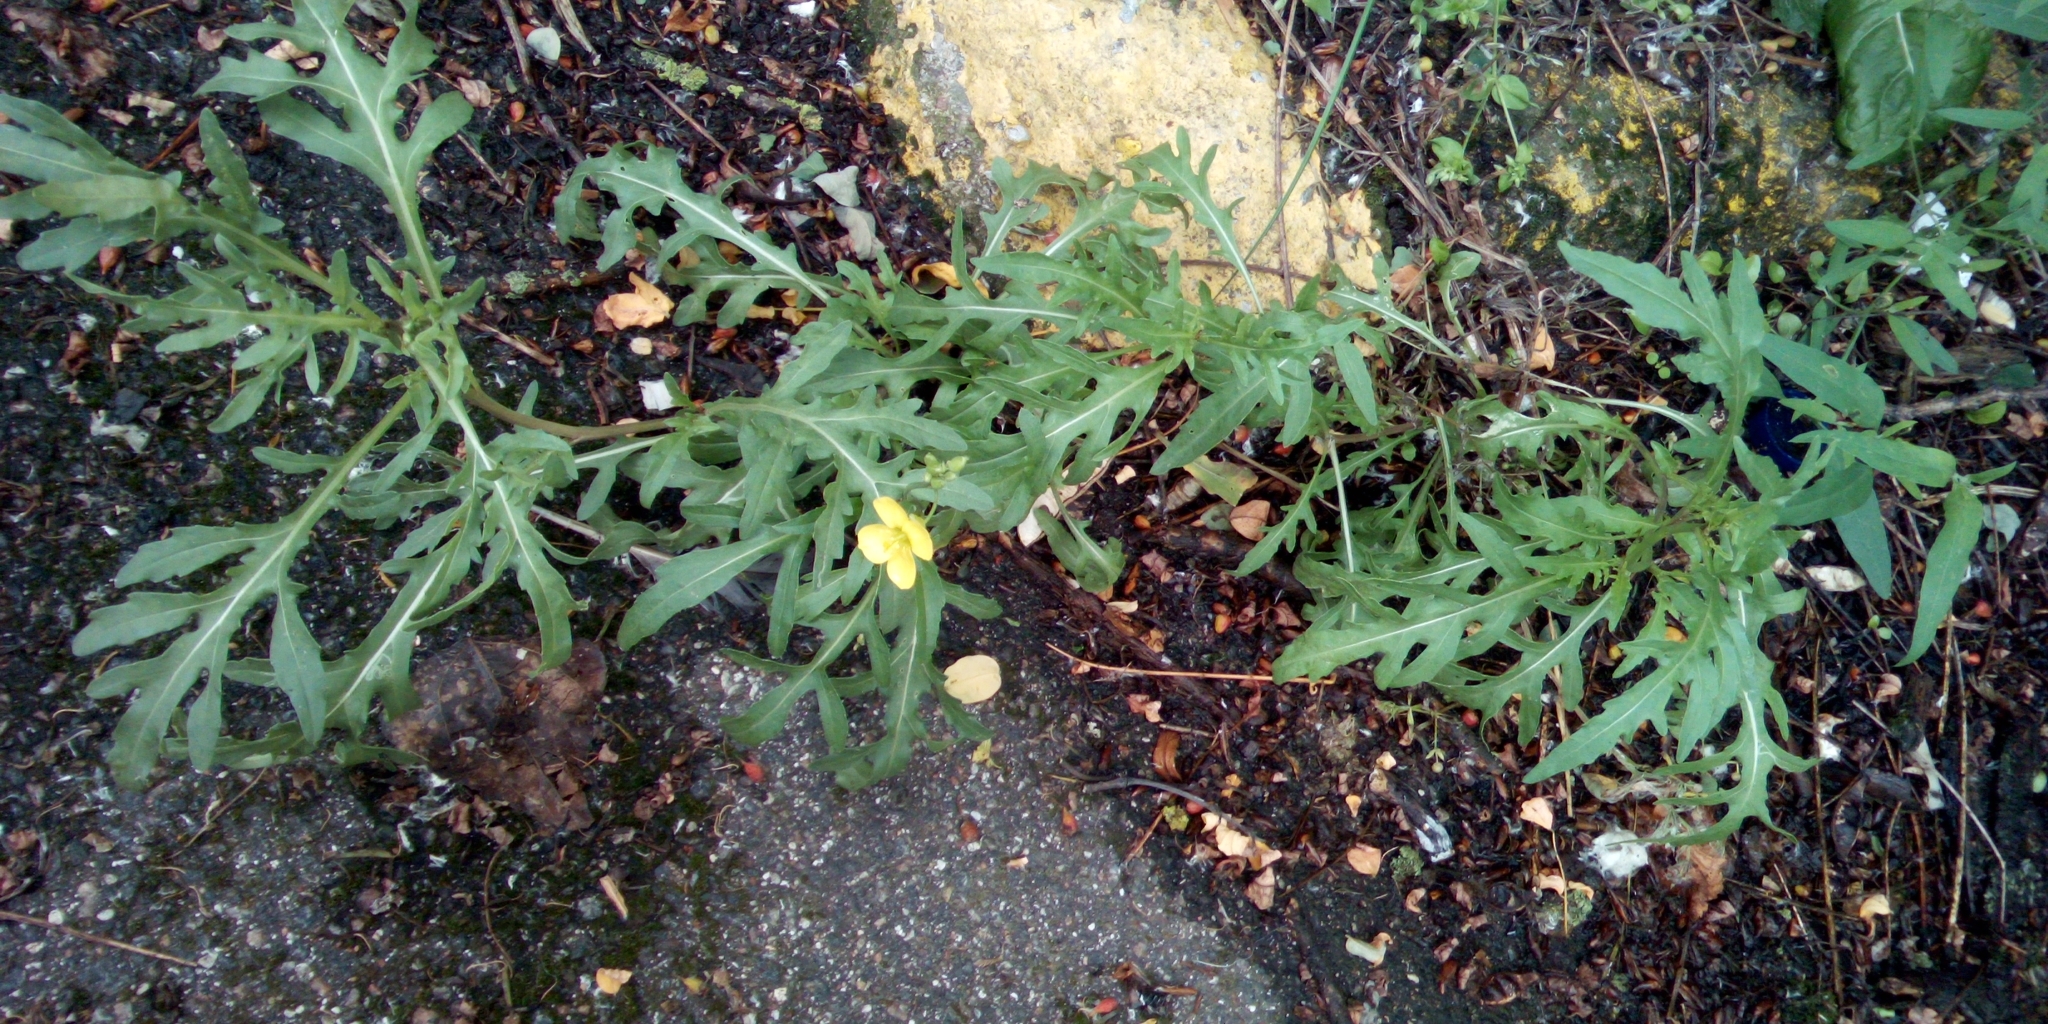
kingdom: Plantae
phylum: Tracheophyta
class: Magnoliopsida
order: Brassicales
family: Brassicaceae
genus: Diplotaxis
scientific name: Diplotaxis tenuifolia
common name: Perennial wall-rocket
